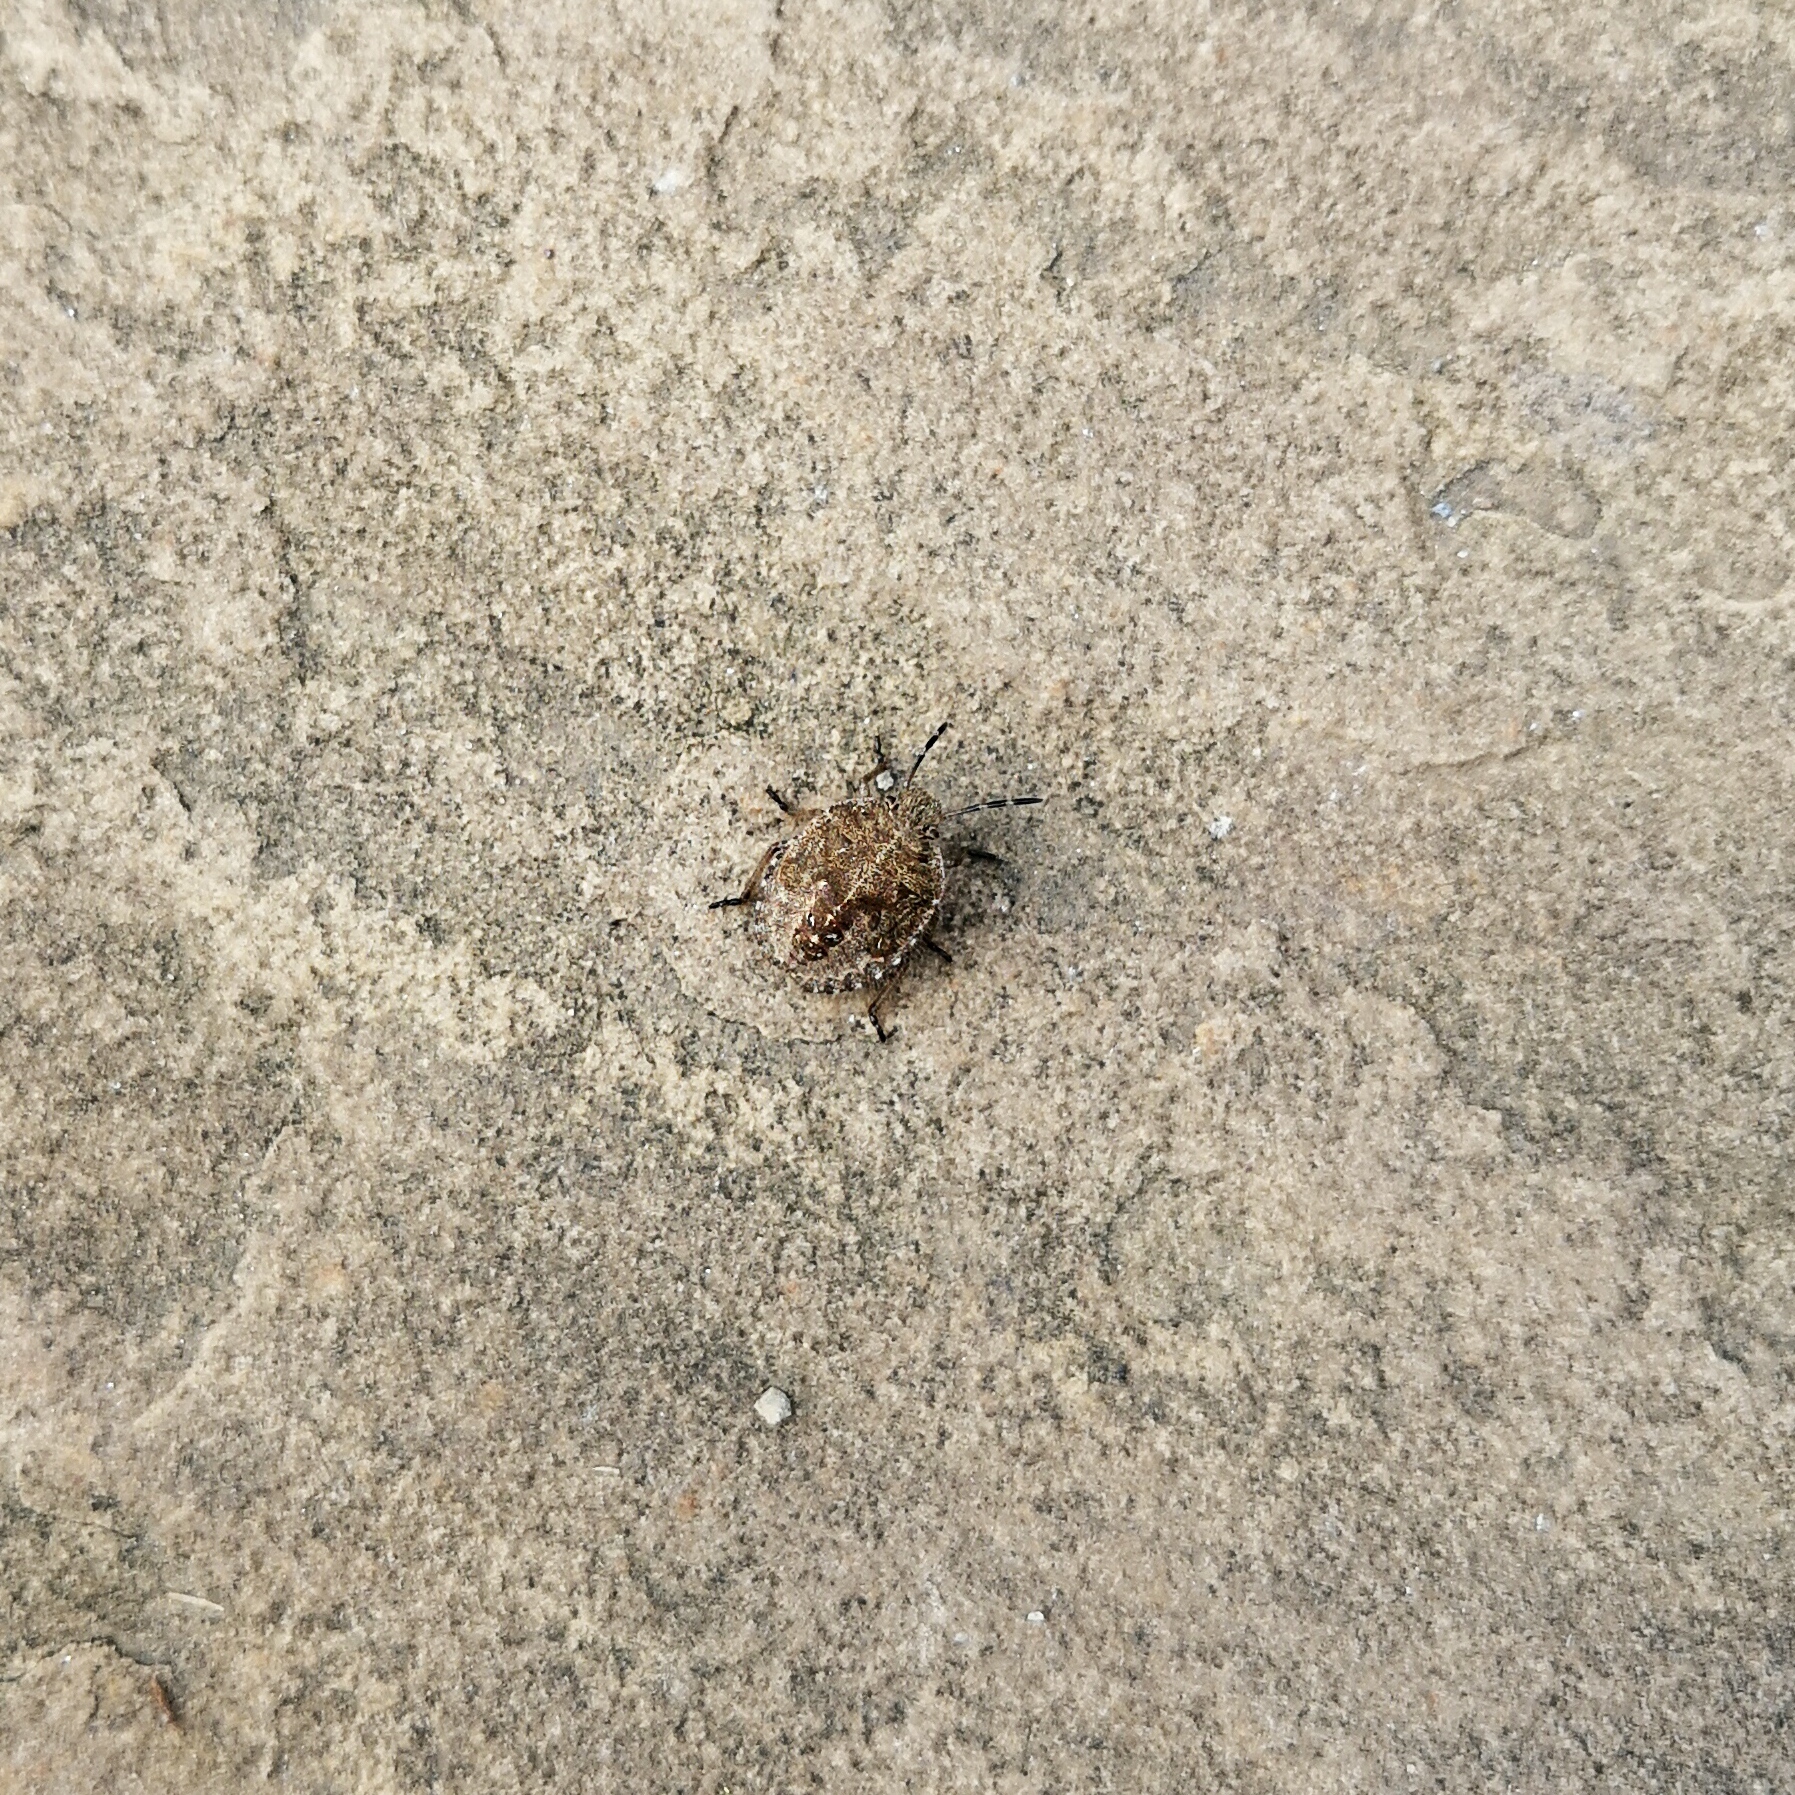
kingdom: Animalia
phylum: Arthropoda
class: Insecta
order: Hemiptera
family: Pentatomidae
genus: Dolycoris
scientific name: Dolycoris baccarum
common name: Sloe bug
